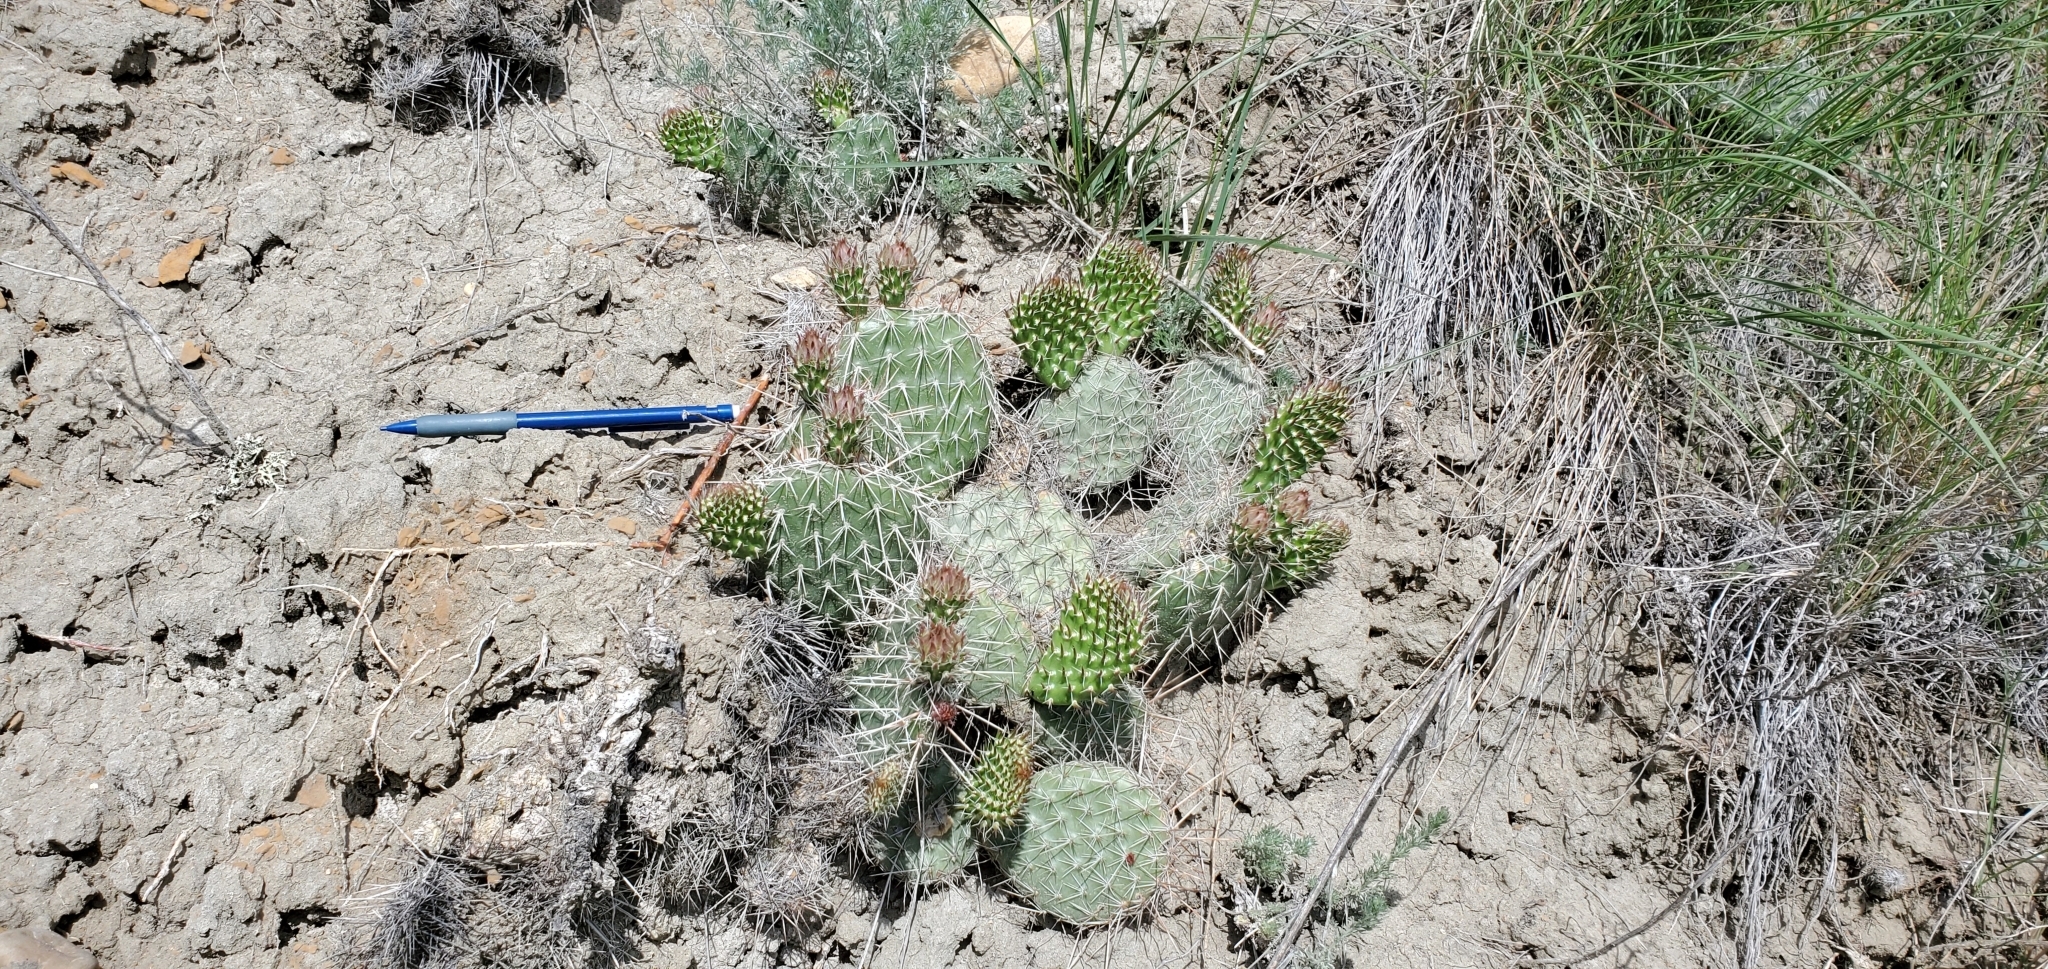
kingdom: Plantae
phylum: Tracheophyta
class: Magnoliopsida
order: Caryophyllales
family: Cactaceae
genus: Opuntia
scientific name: Opuntia polyacantha
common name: Plains prickly-pear
